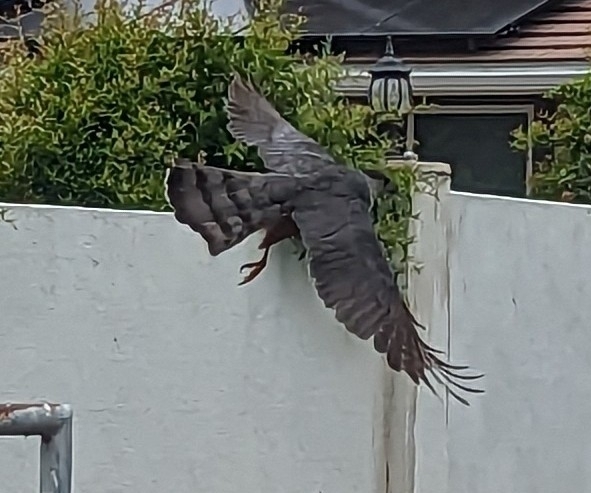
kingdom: Animalia
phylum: Chordata
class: Aves
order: Accipitriformes
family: Accipitridae
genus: Accipiter
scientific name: Accipiter cooperii
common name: Cooper's hawk
